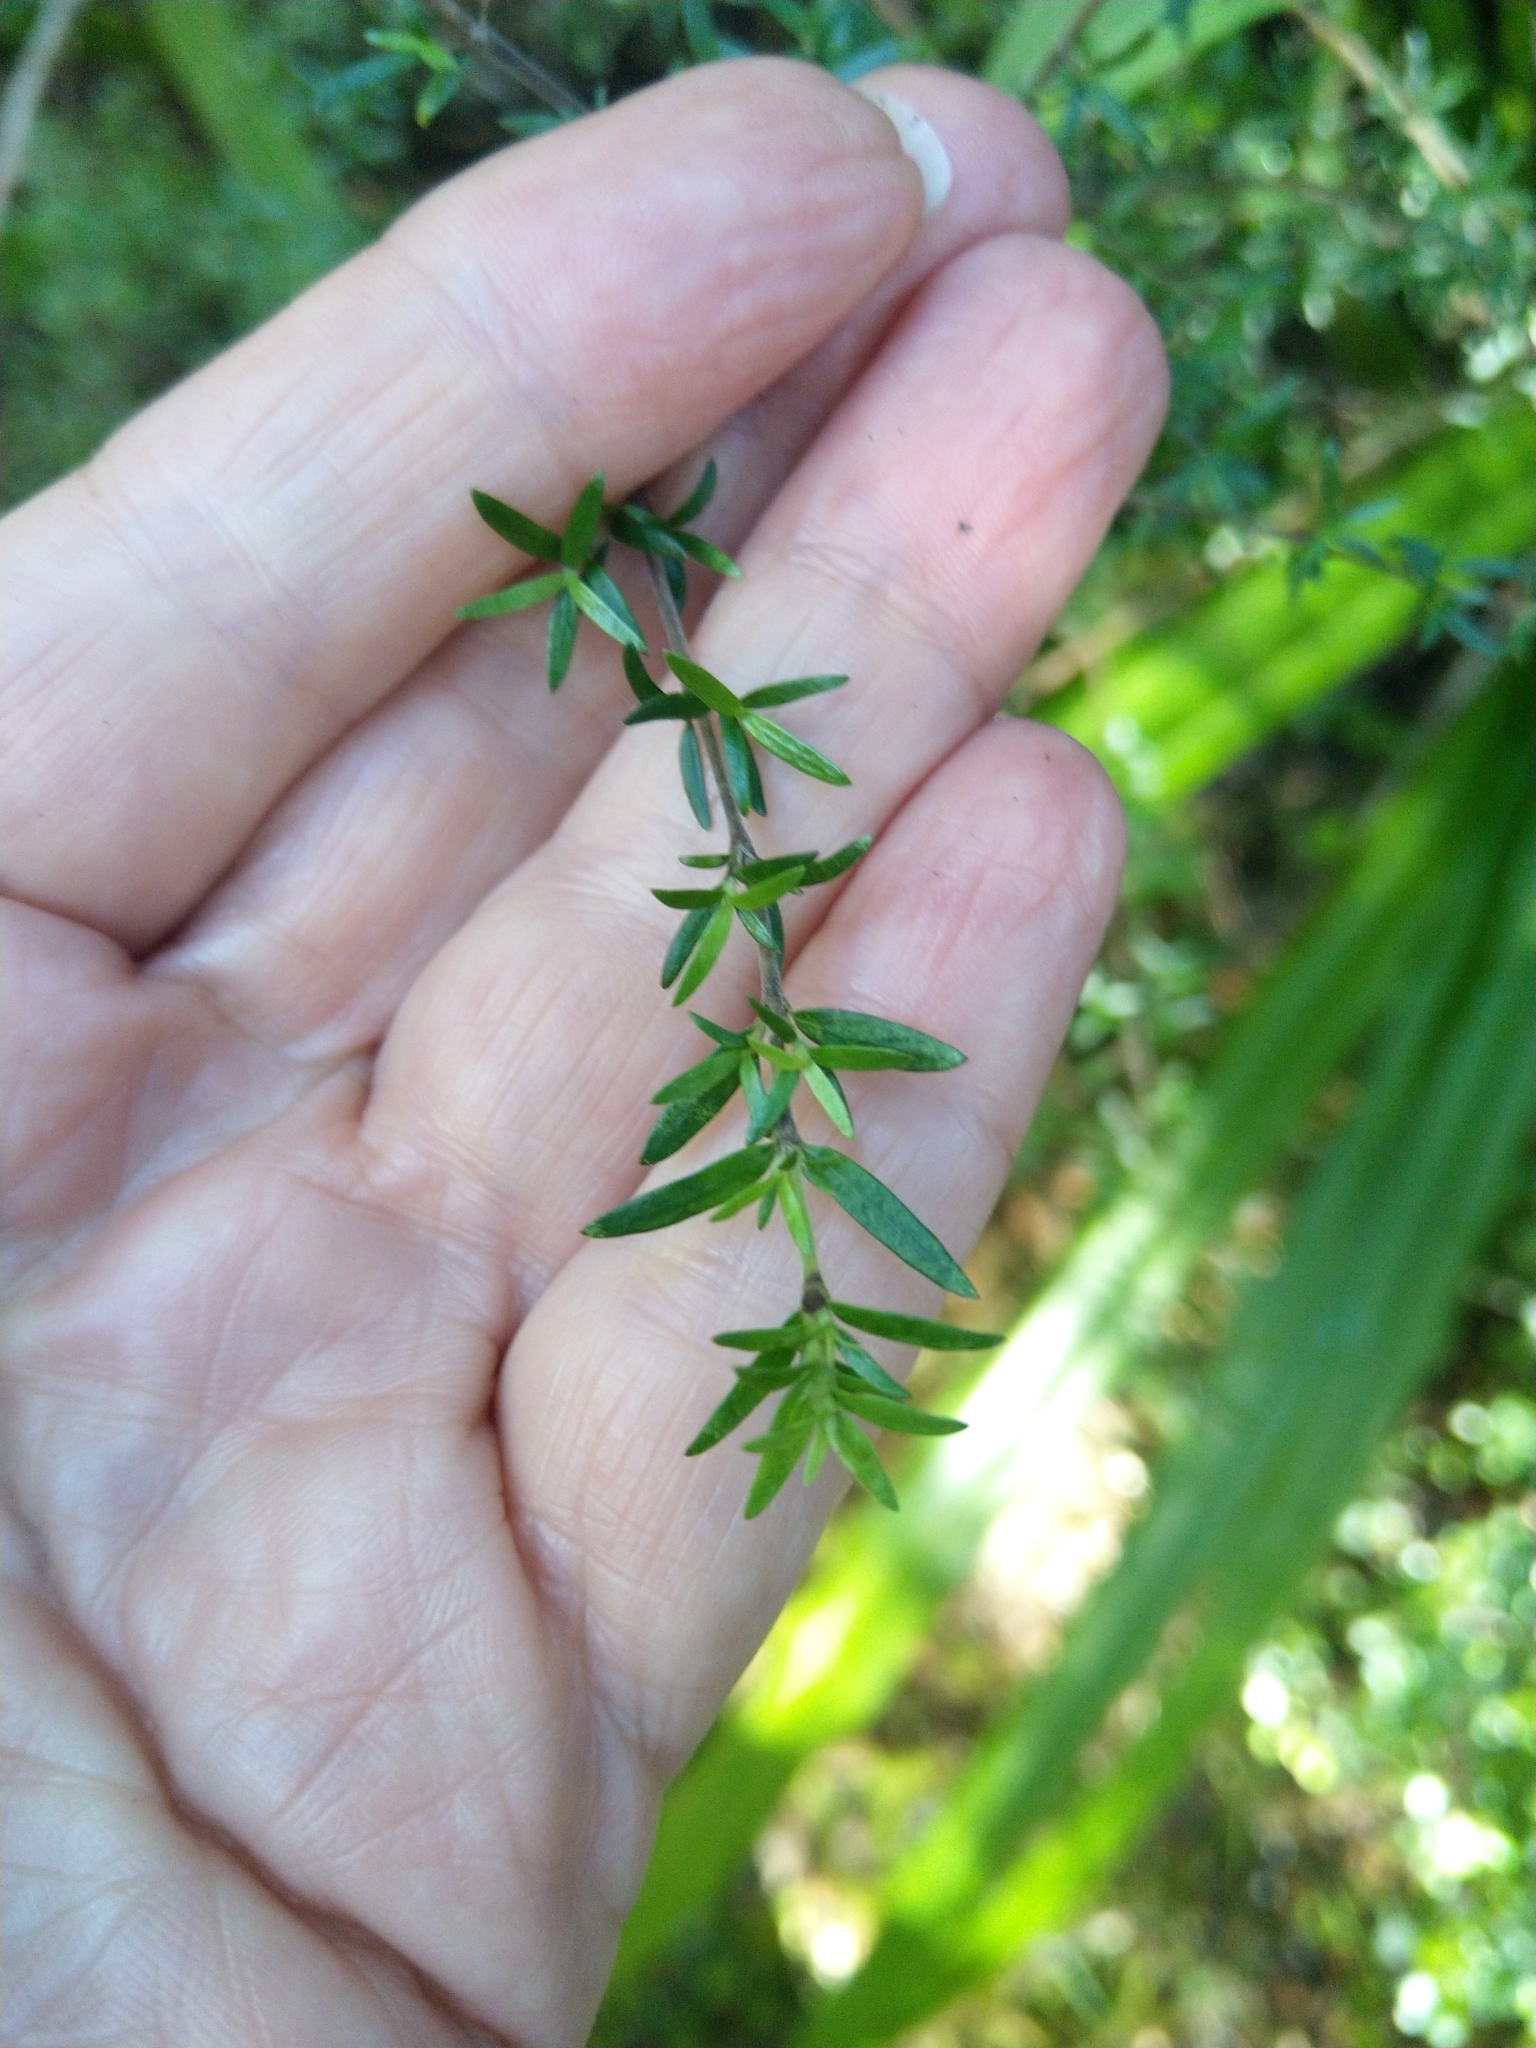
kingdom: Plantae
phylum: Tracheophyta
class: Magnoliopsida
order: Gentianales
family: Rubiaceae
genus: Coprosma
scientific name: Coprosma microcarpa
